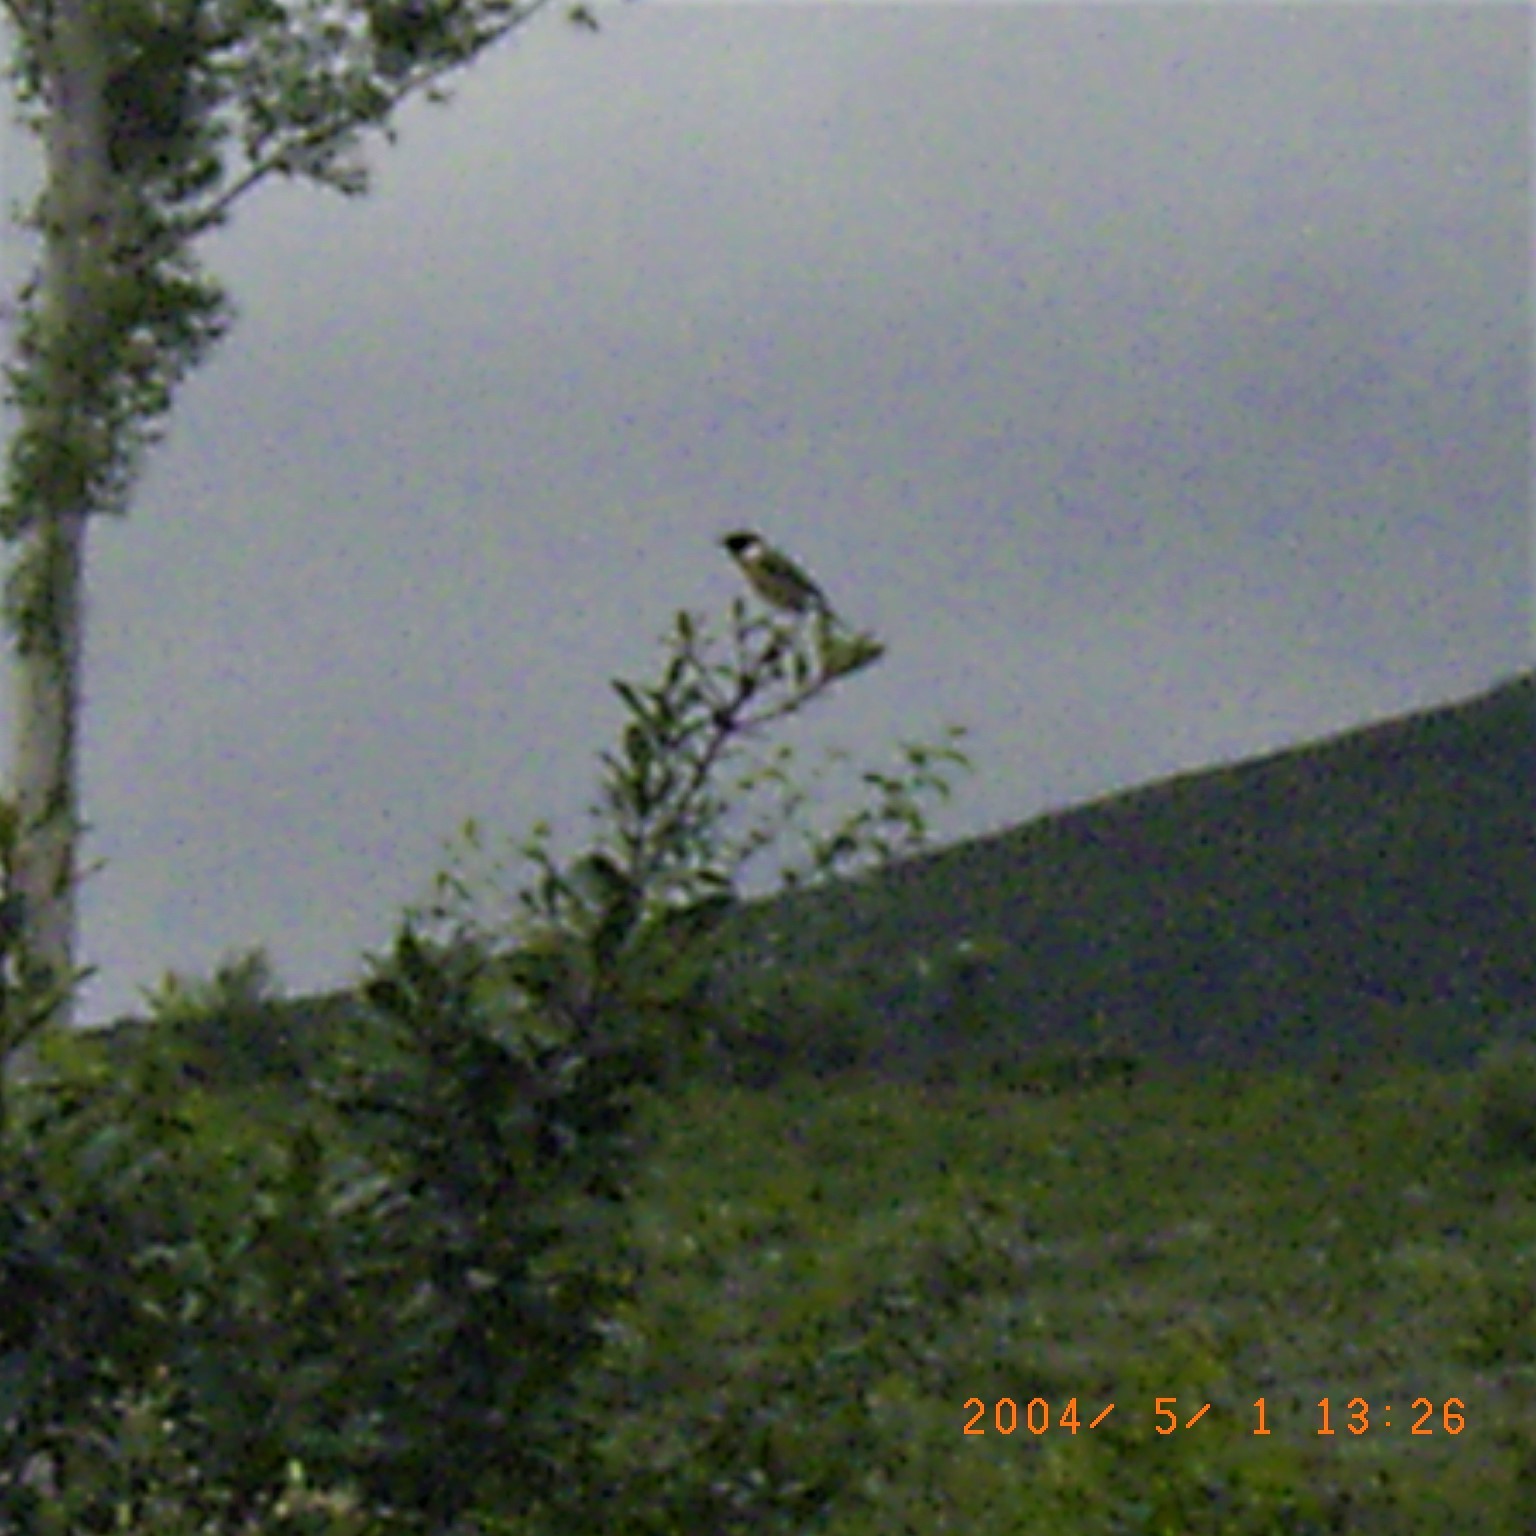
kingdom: Animalia
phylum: Chordata
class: Aves
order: Passeriformes
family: Muscicapidae
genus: Saxicola
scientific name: Saxicola torquatus
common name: African stonechat
